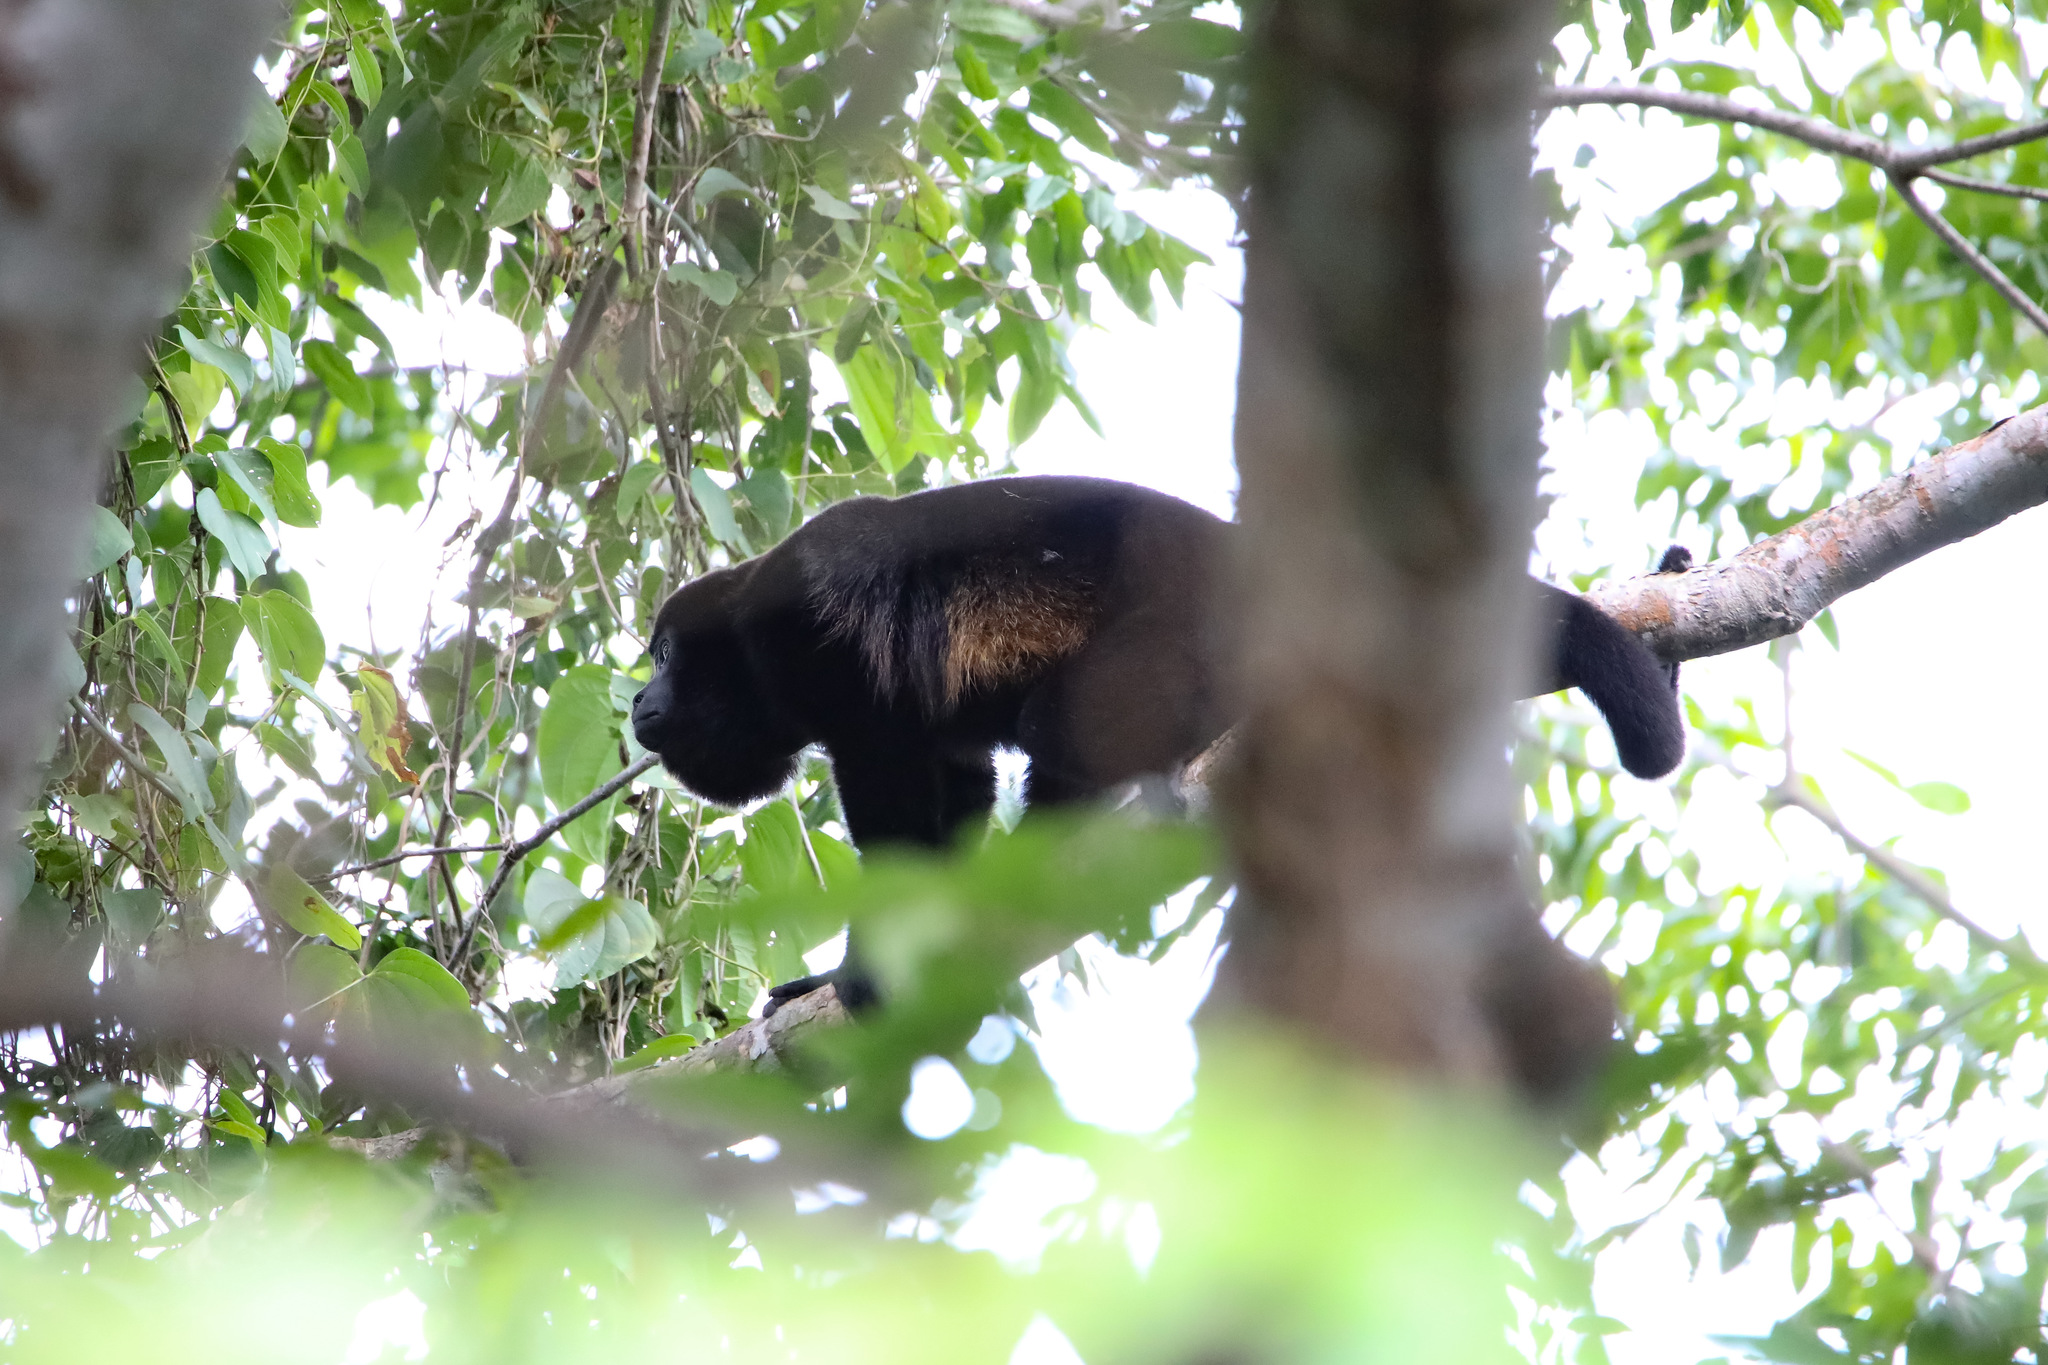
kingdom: Animalia
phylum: Chordata
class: Mammalia
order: Primates
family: Atelidae
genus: Alouatta
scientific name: Alouatta palliata
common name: Mantled howler
